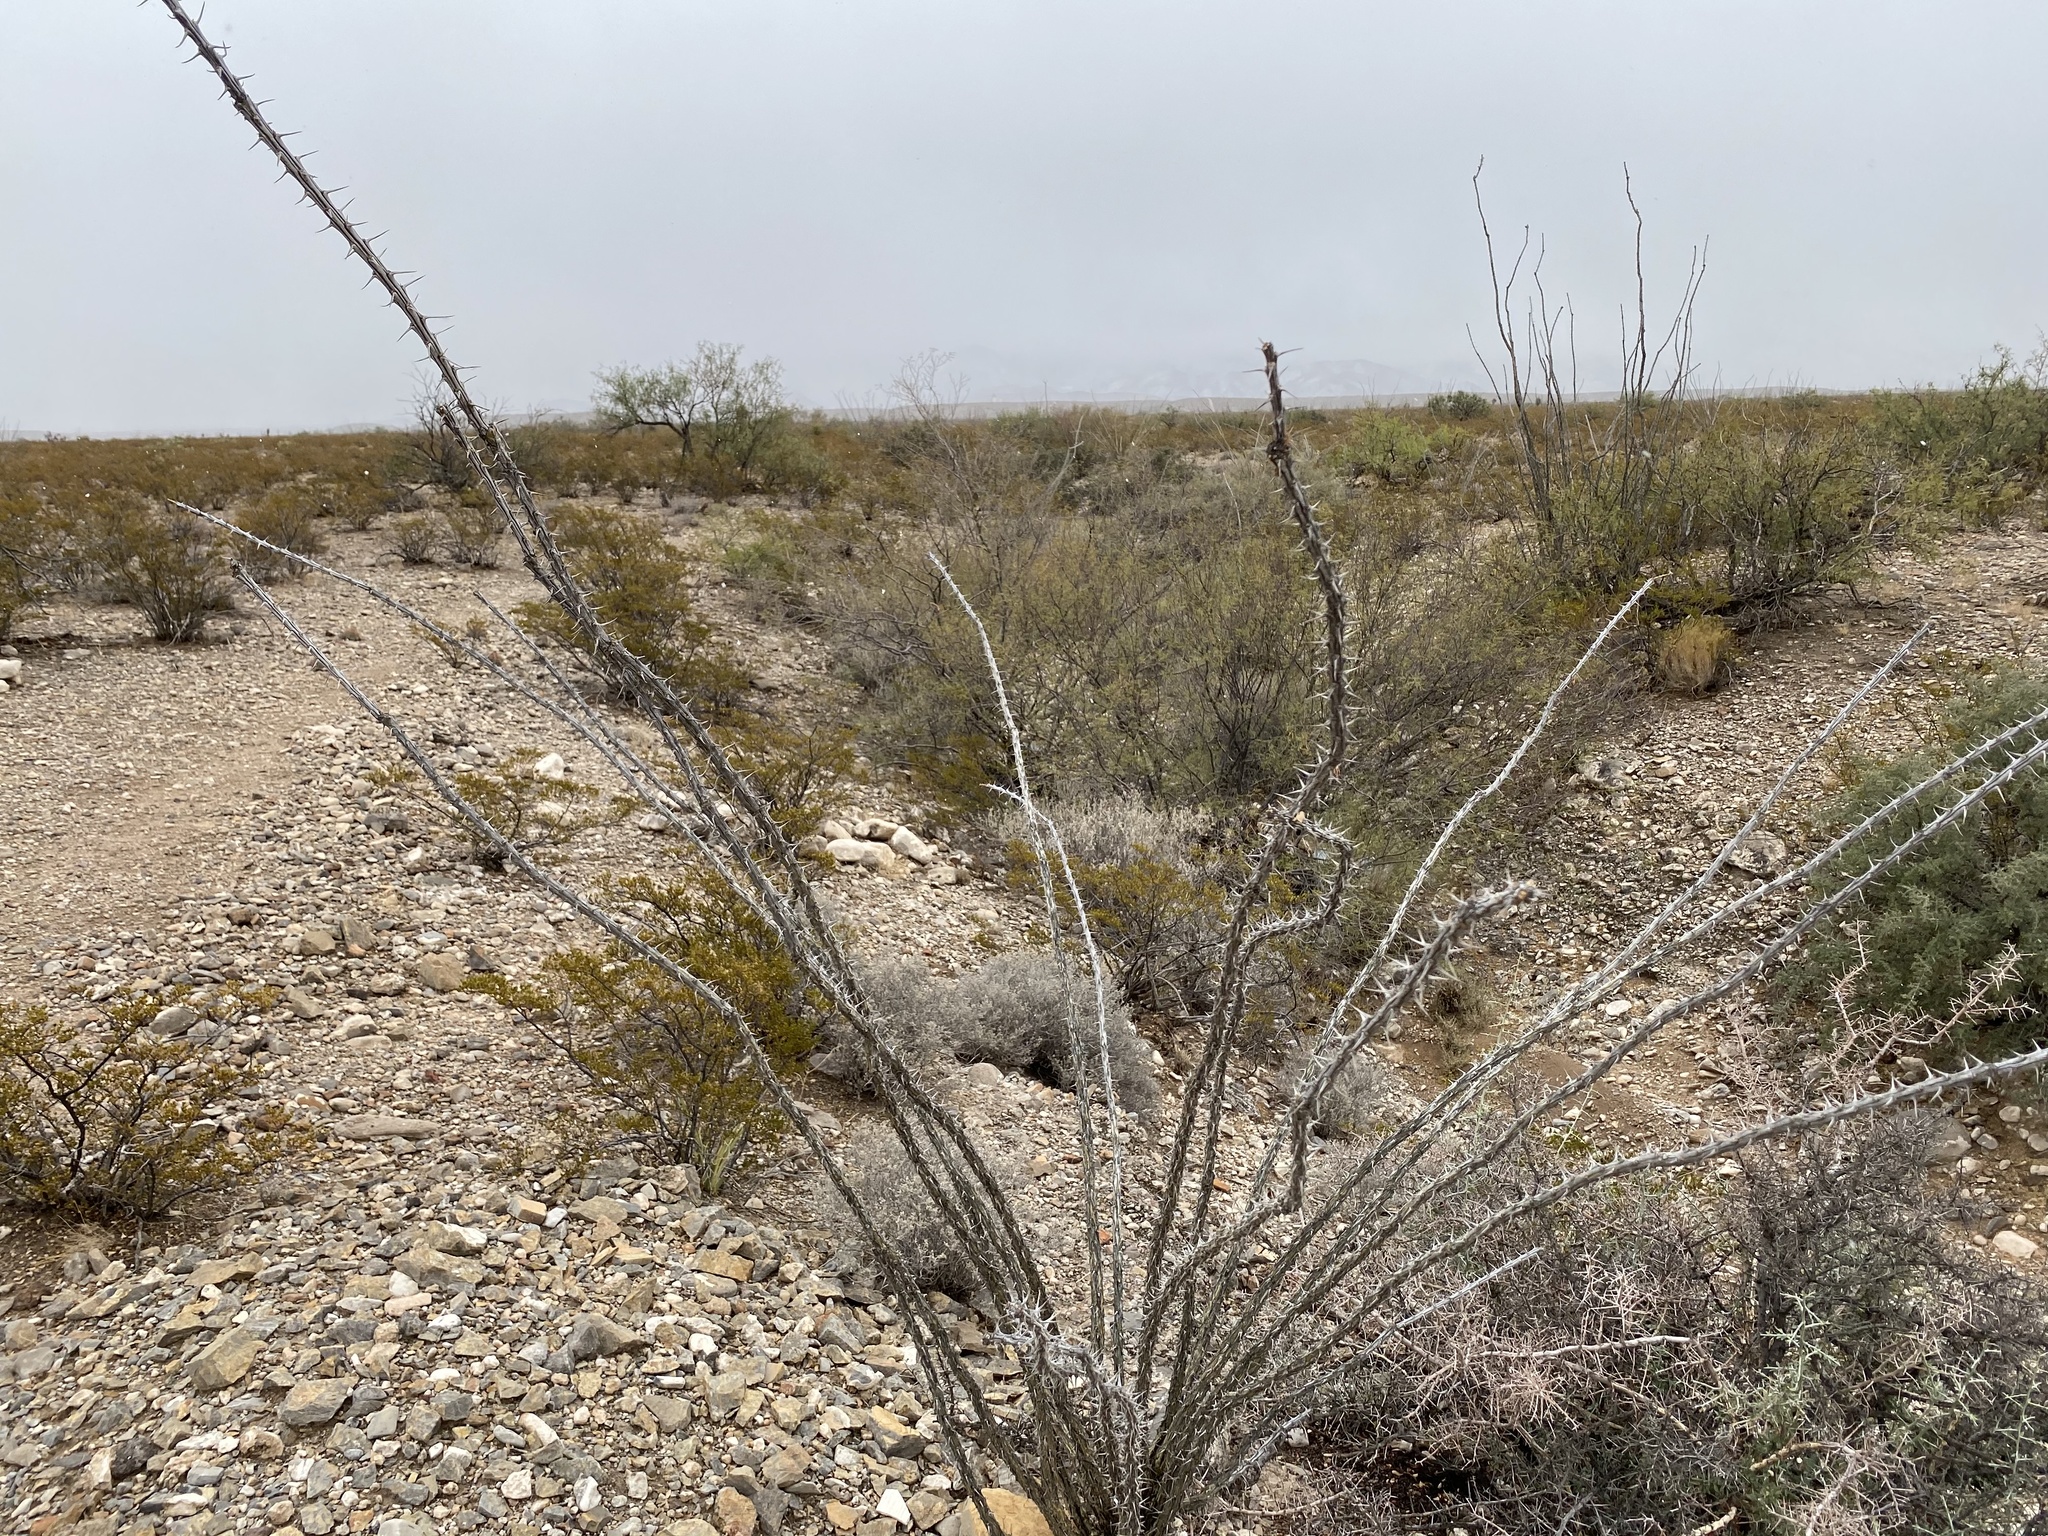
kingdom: Plantae
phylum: Tracheophyta
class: Magnoliopsida
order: Ericales
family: Fouquieriaceae
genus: Fouquieria
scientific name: Fouquieria splendens
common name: Vine-cactus
